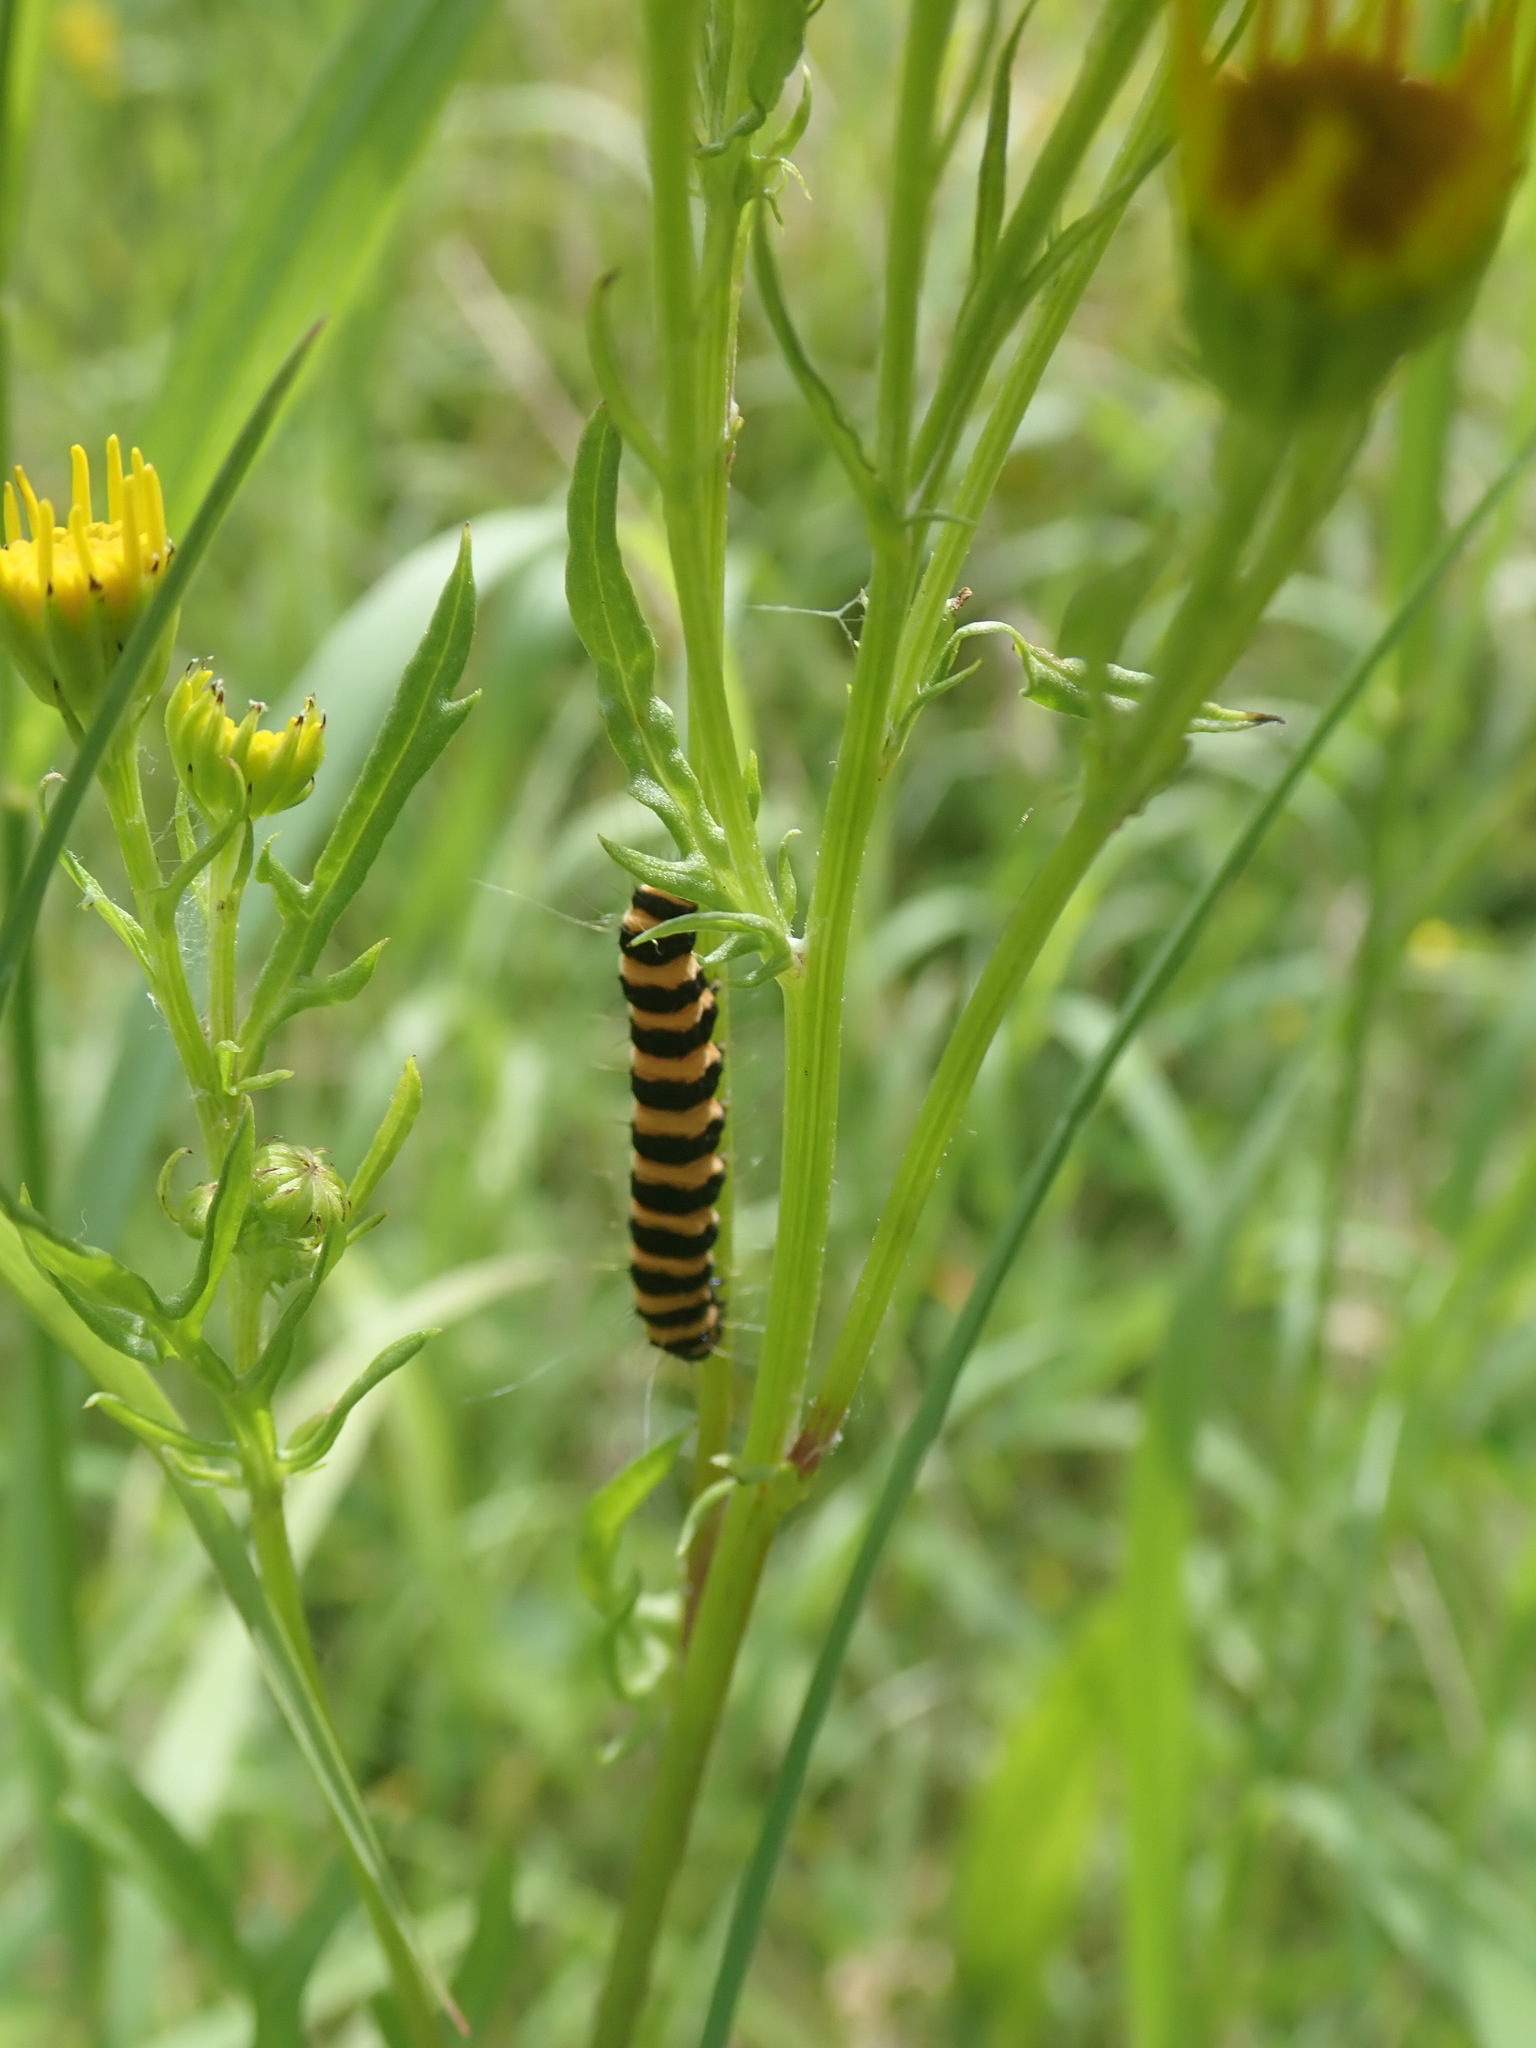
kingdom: Animalia
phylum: Arthropoda
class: Insecta
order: Lepidoptera
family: Erebidae
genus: Tyria
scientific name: Tyria jacobaeae
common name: Cinnabar
